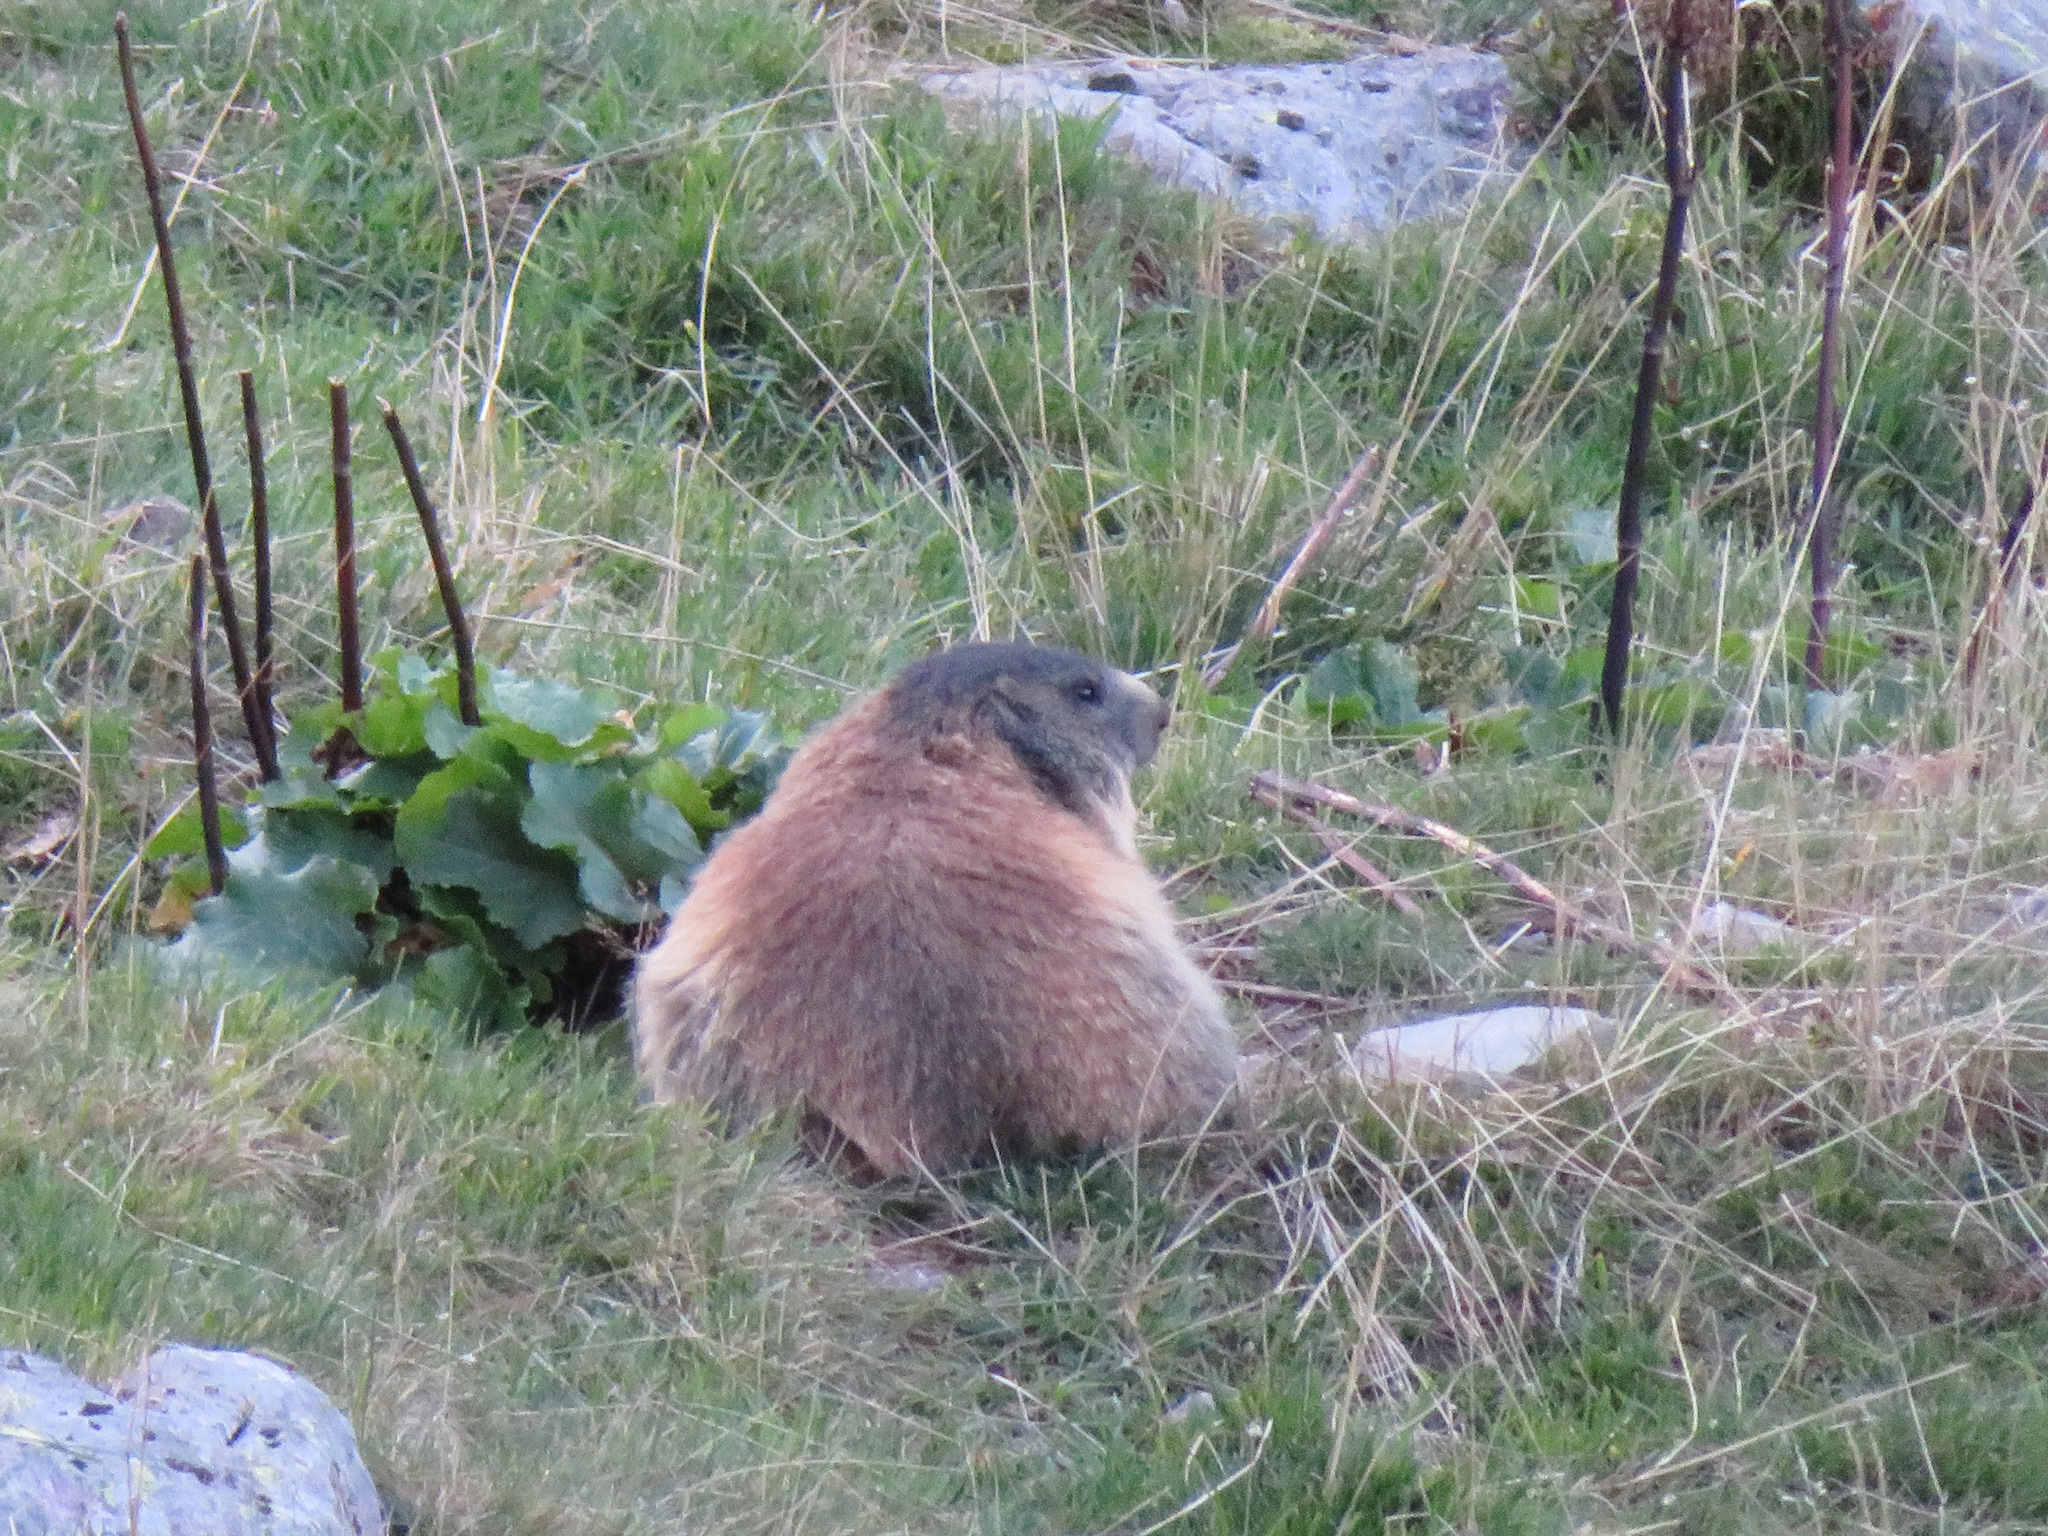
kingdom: Animalia
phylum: Chordata
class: Mammalia
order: Rodentia
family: Sciuridae
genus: Marmota
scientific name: Marmota marmota
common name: Alpine marmot
